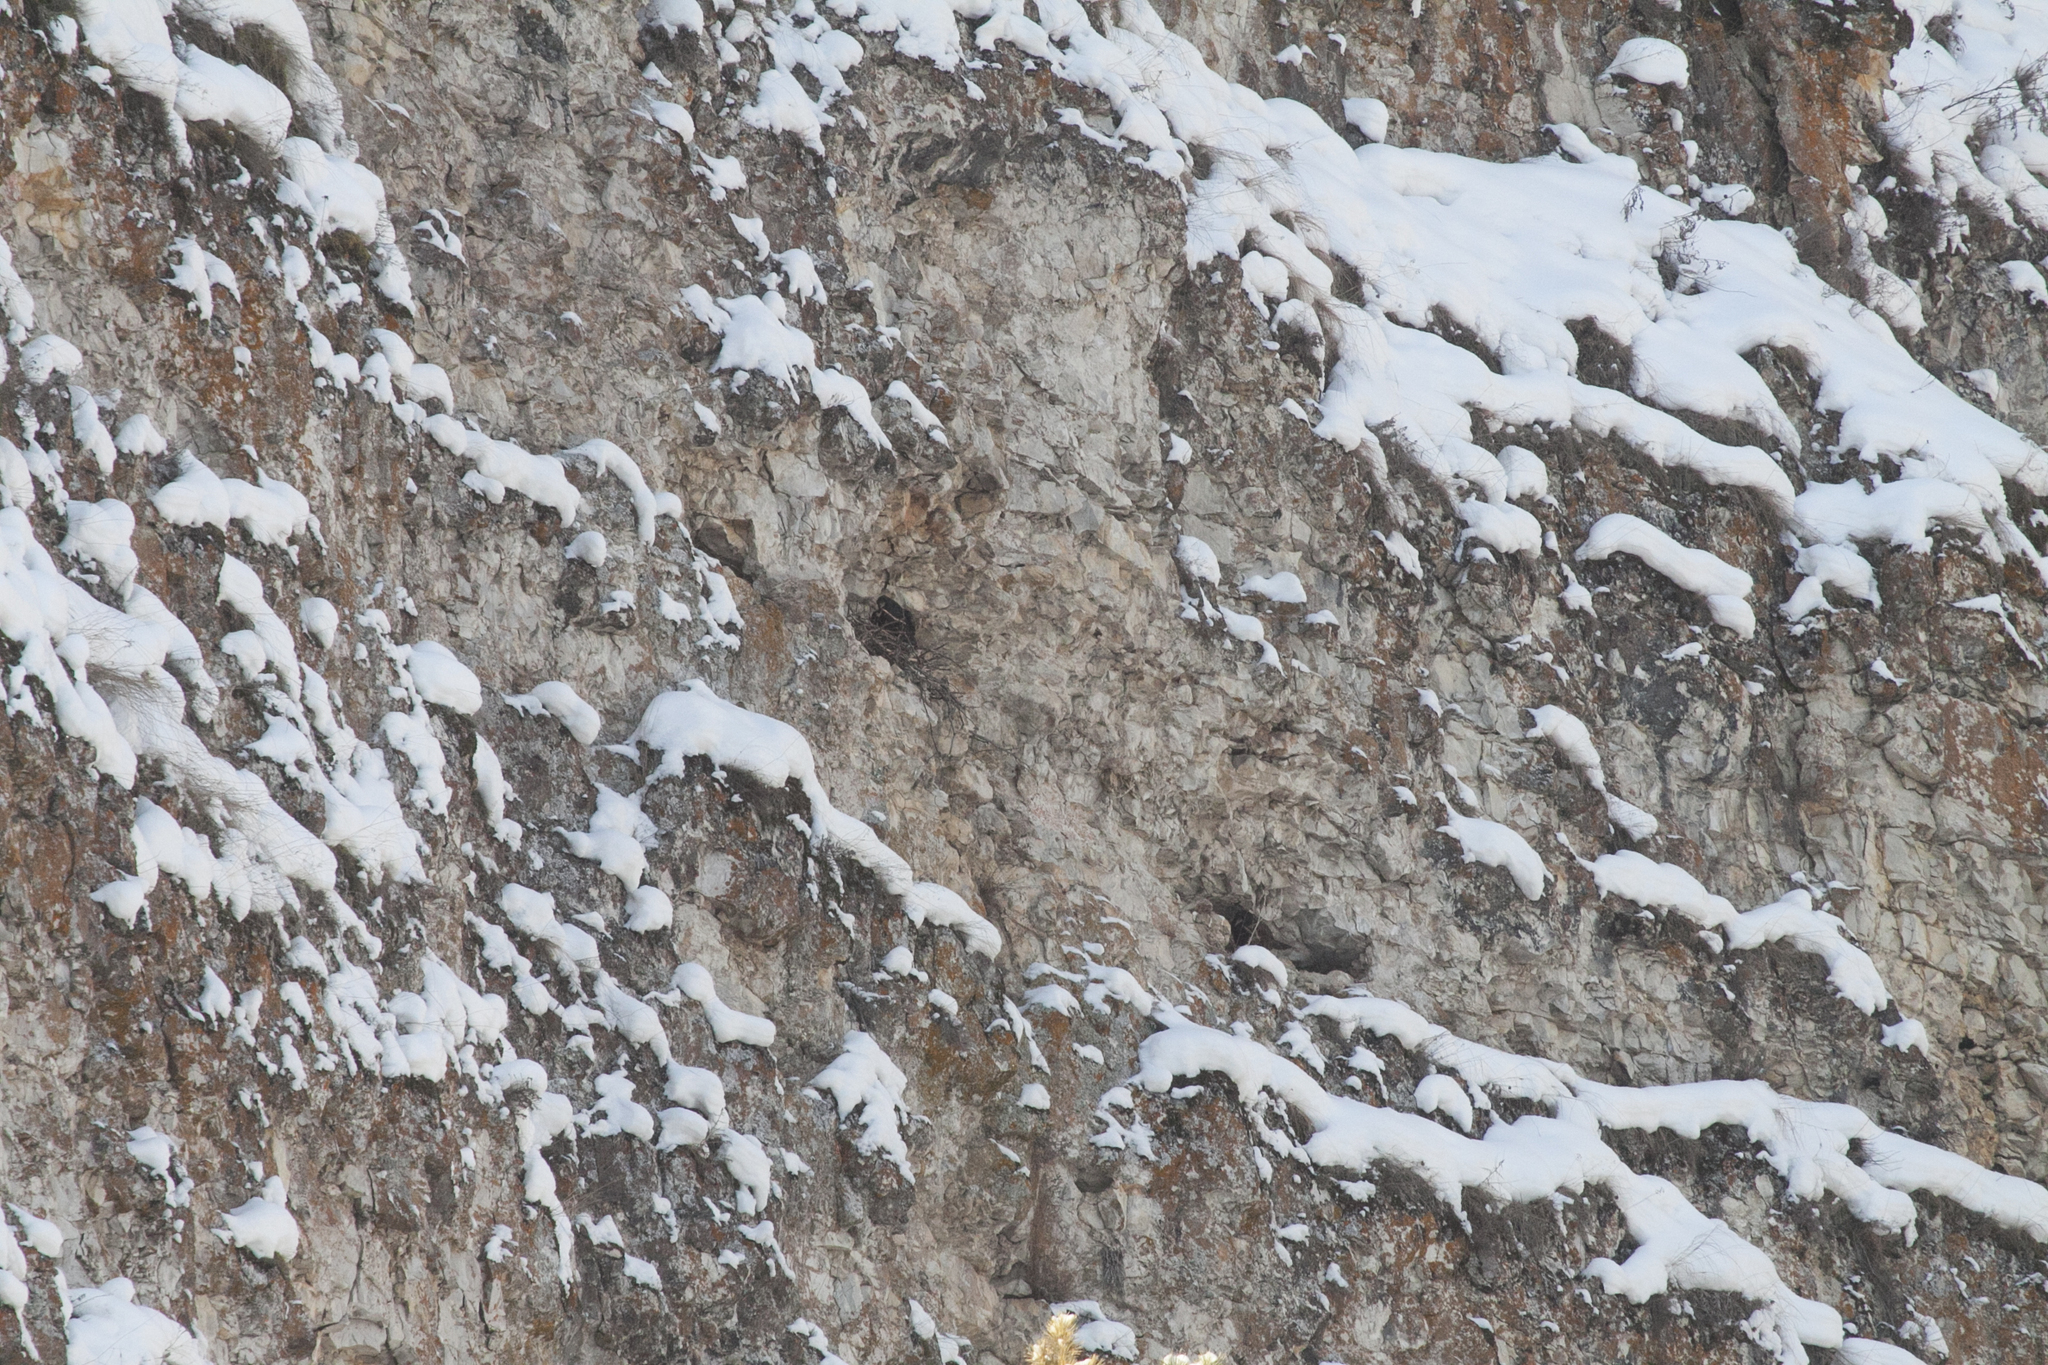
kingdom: Animalia
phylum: Chordata
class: Aves
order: Passeriformes
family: Corvidae
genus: Corvus
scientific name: Corvus corax
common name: Common raven
